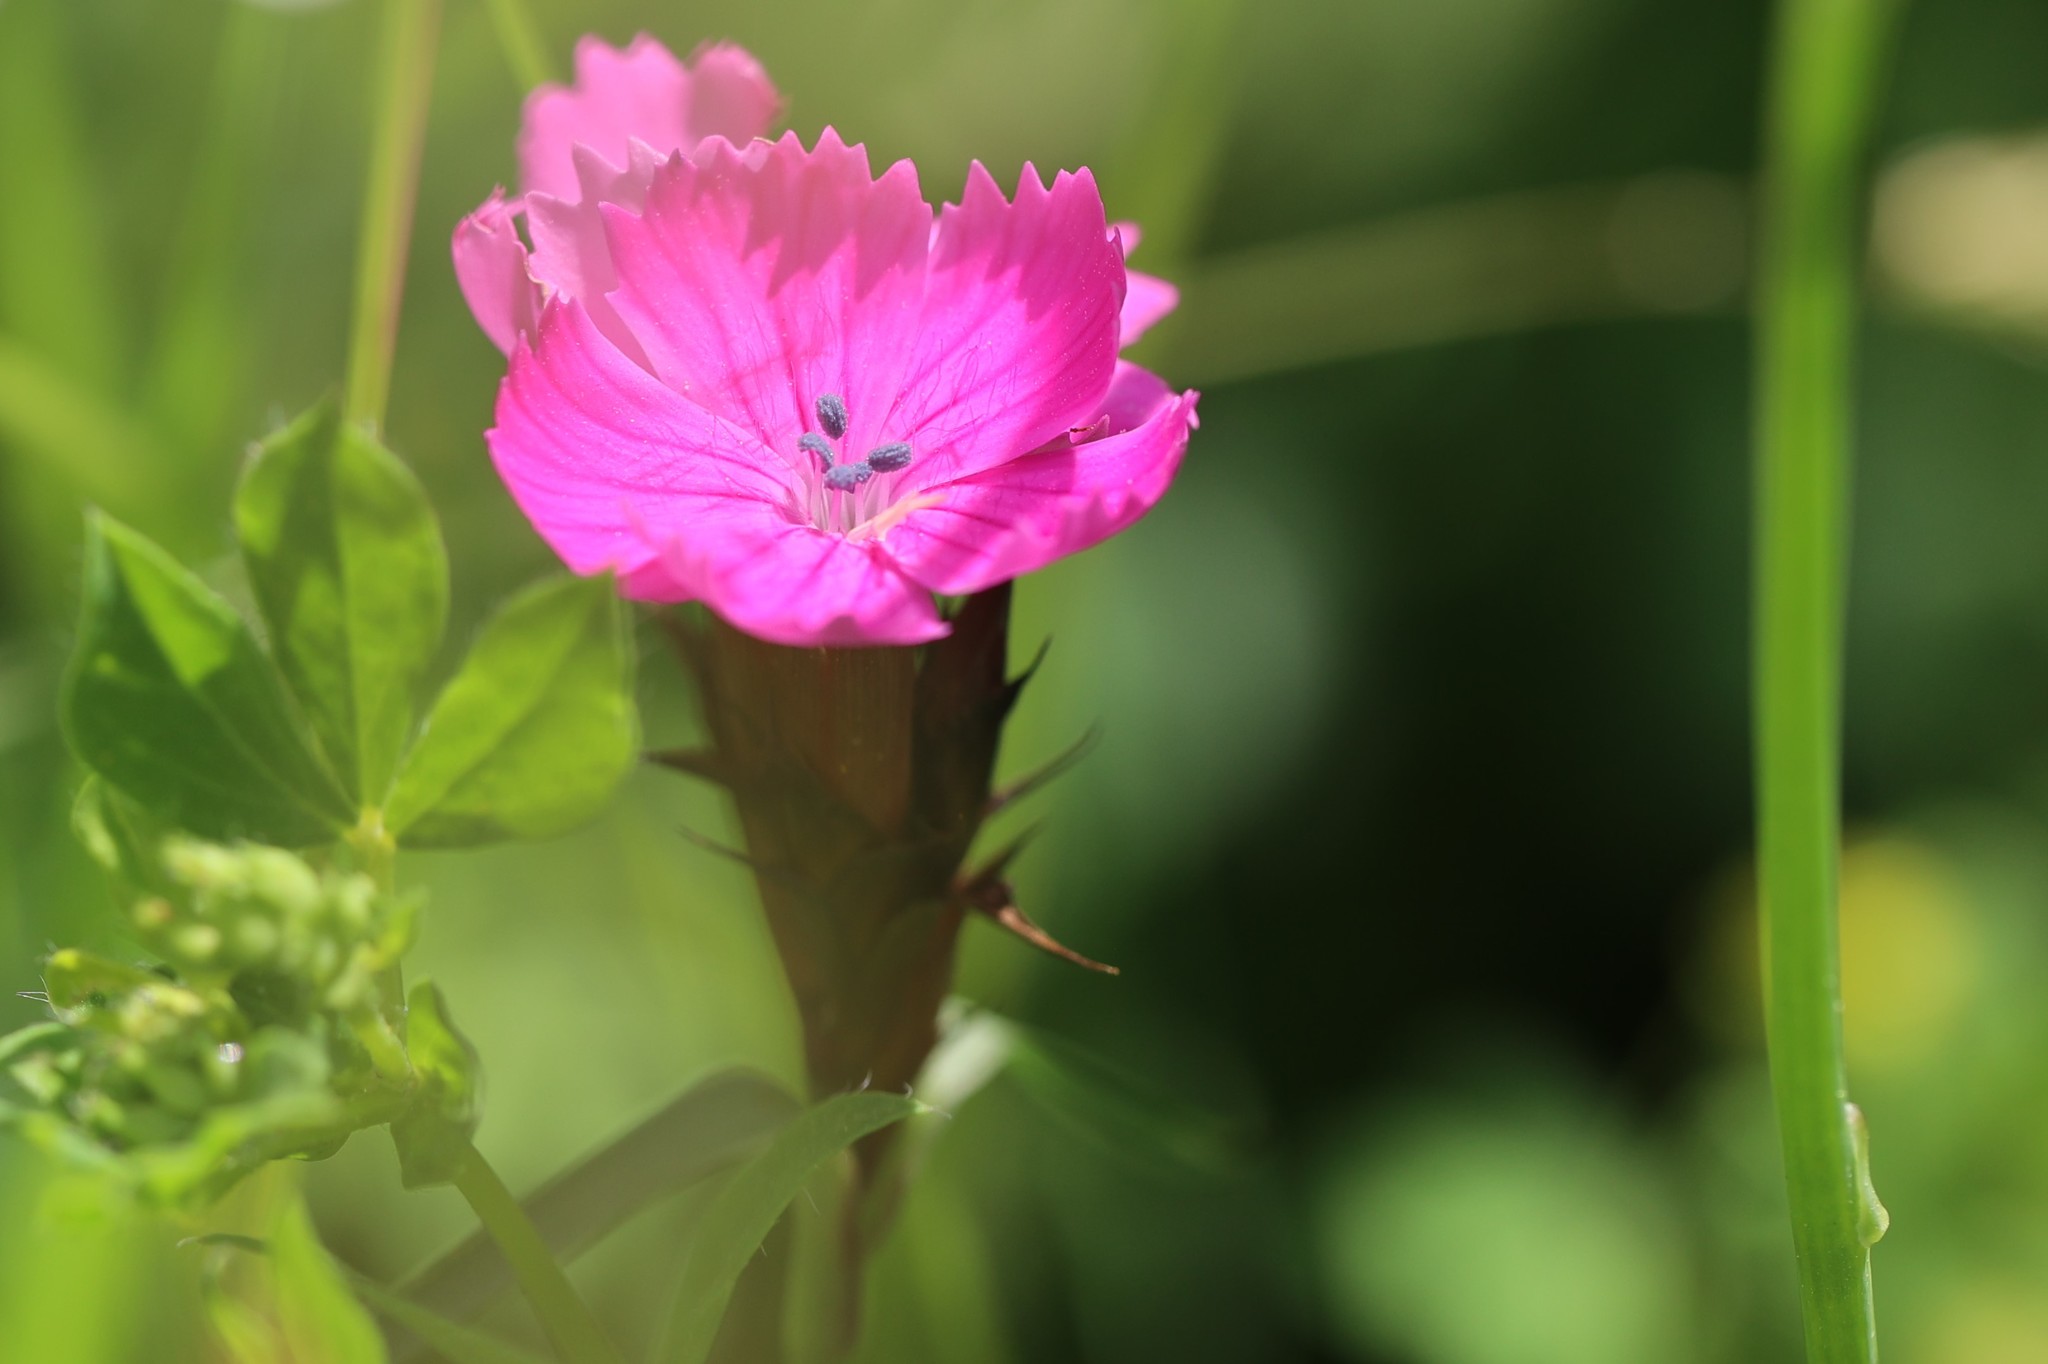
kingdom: Plantae
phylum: Tracheophyta
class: Magnoliopsida
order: Caryophyllales
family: Caryophyllaceae
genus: Dianthus
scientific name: Dianthus carthusianorum
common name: Carthusian pink
